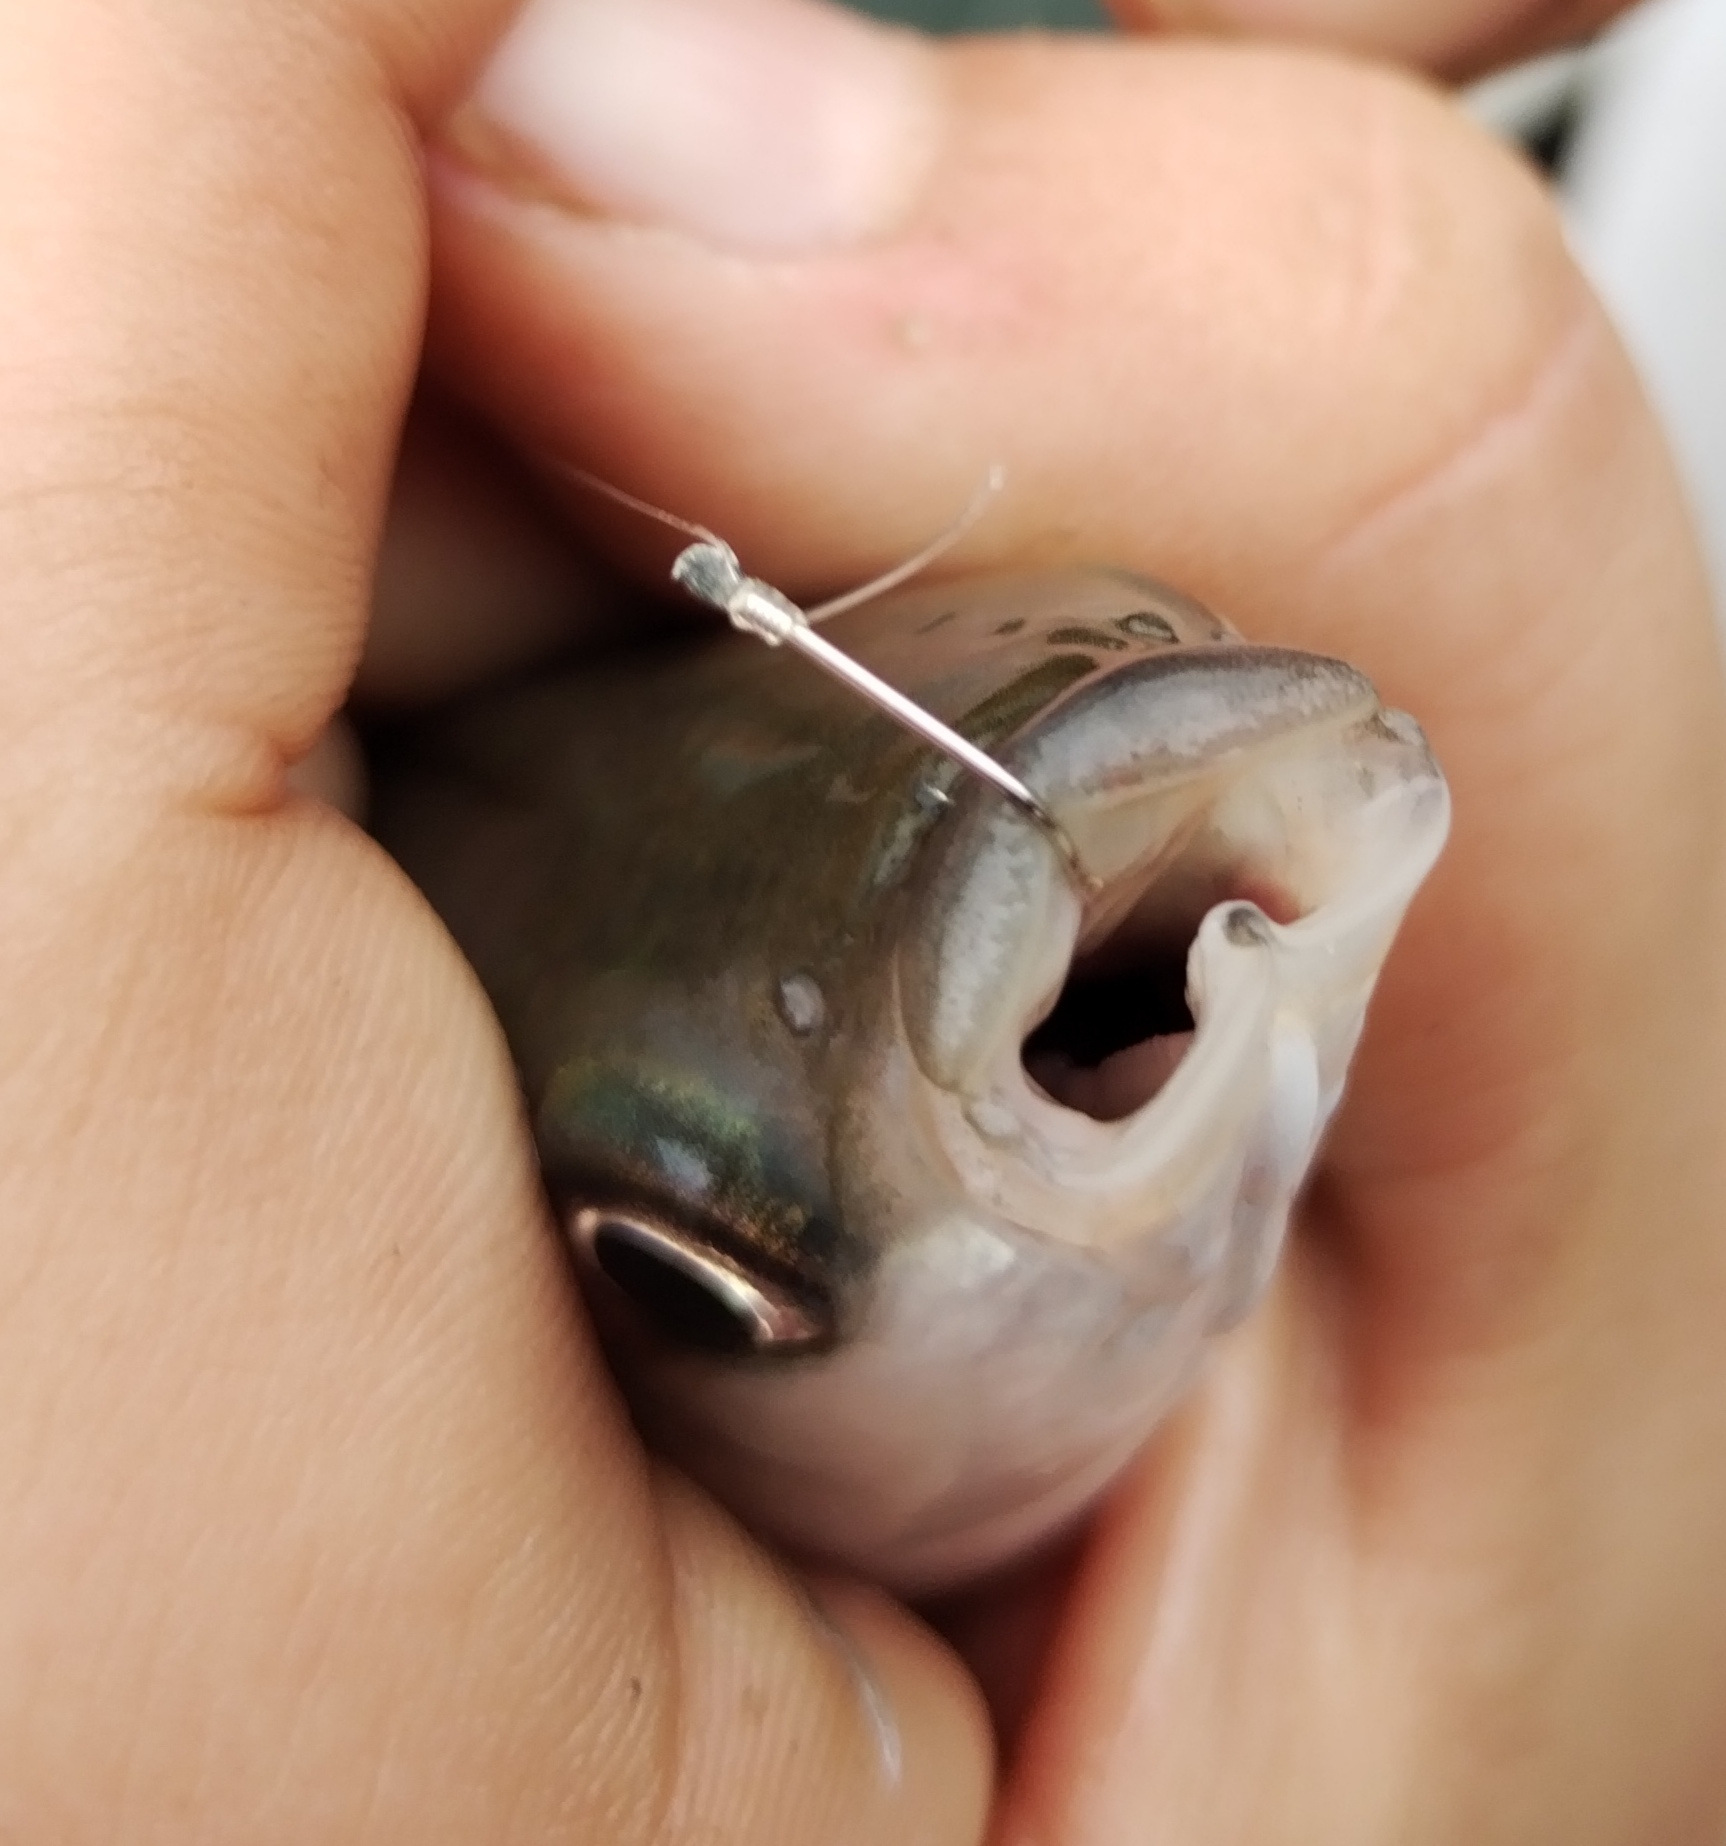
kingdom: Animalia
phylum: Chordata
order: Mugiliformes
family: Mugilidae
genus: Chelon
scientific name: Chelon labrosus
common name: Thick-lipped mullet
